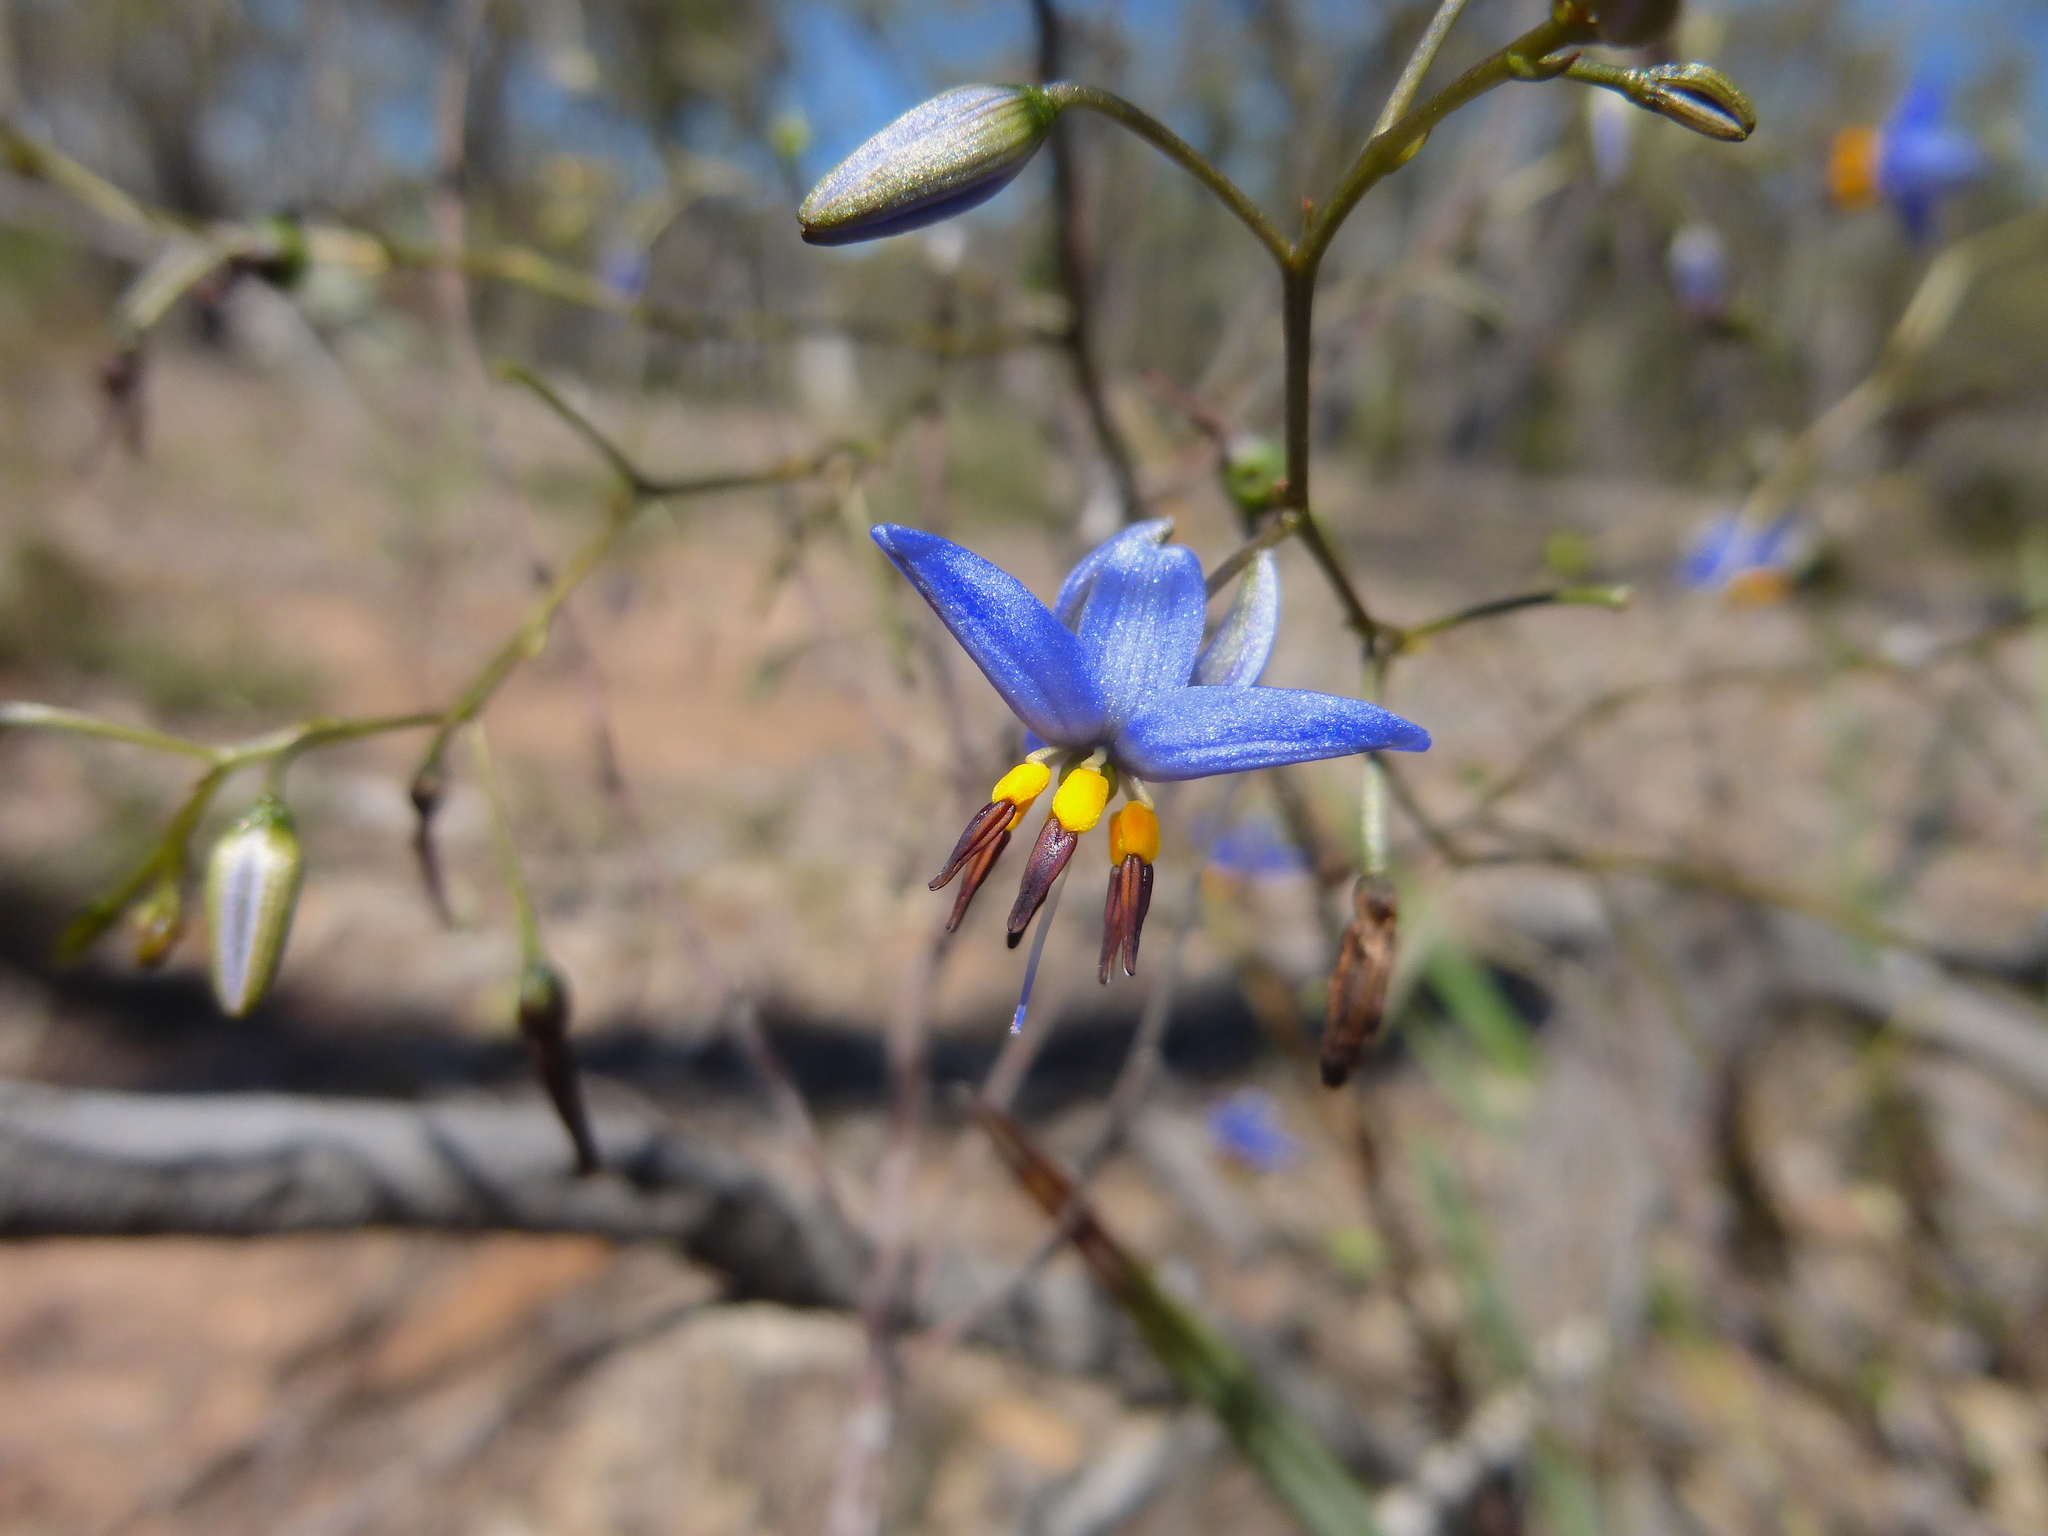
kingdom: Plantae
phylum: Tracheophyta
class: Liliopsida
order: Asparagales
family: Asphodelaceae
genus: Dianella
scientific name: Dianella revoluta
